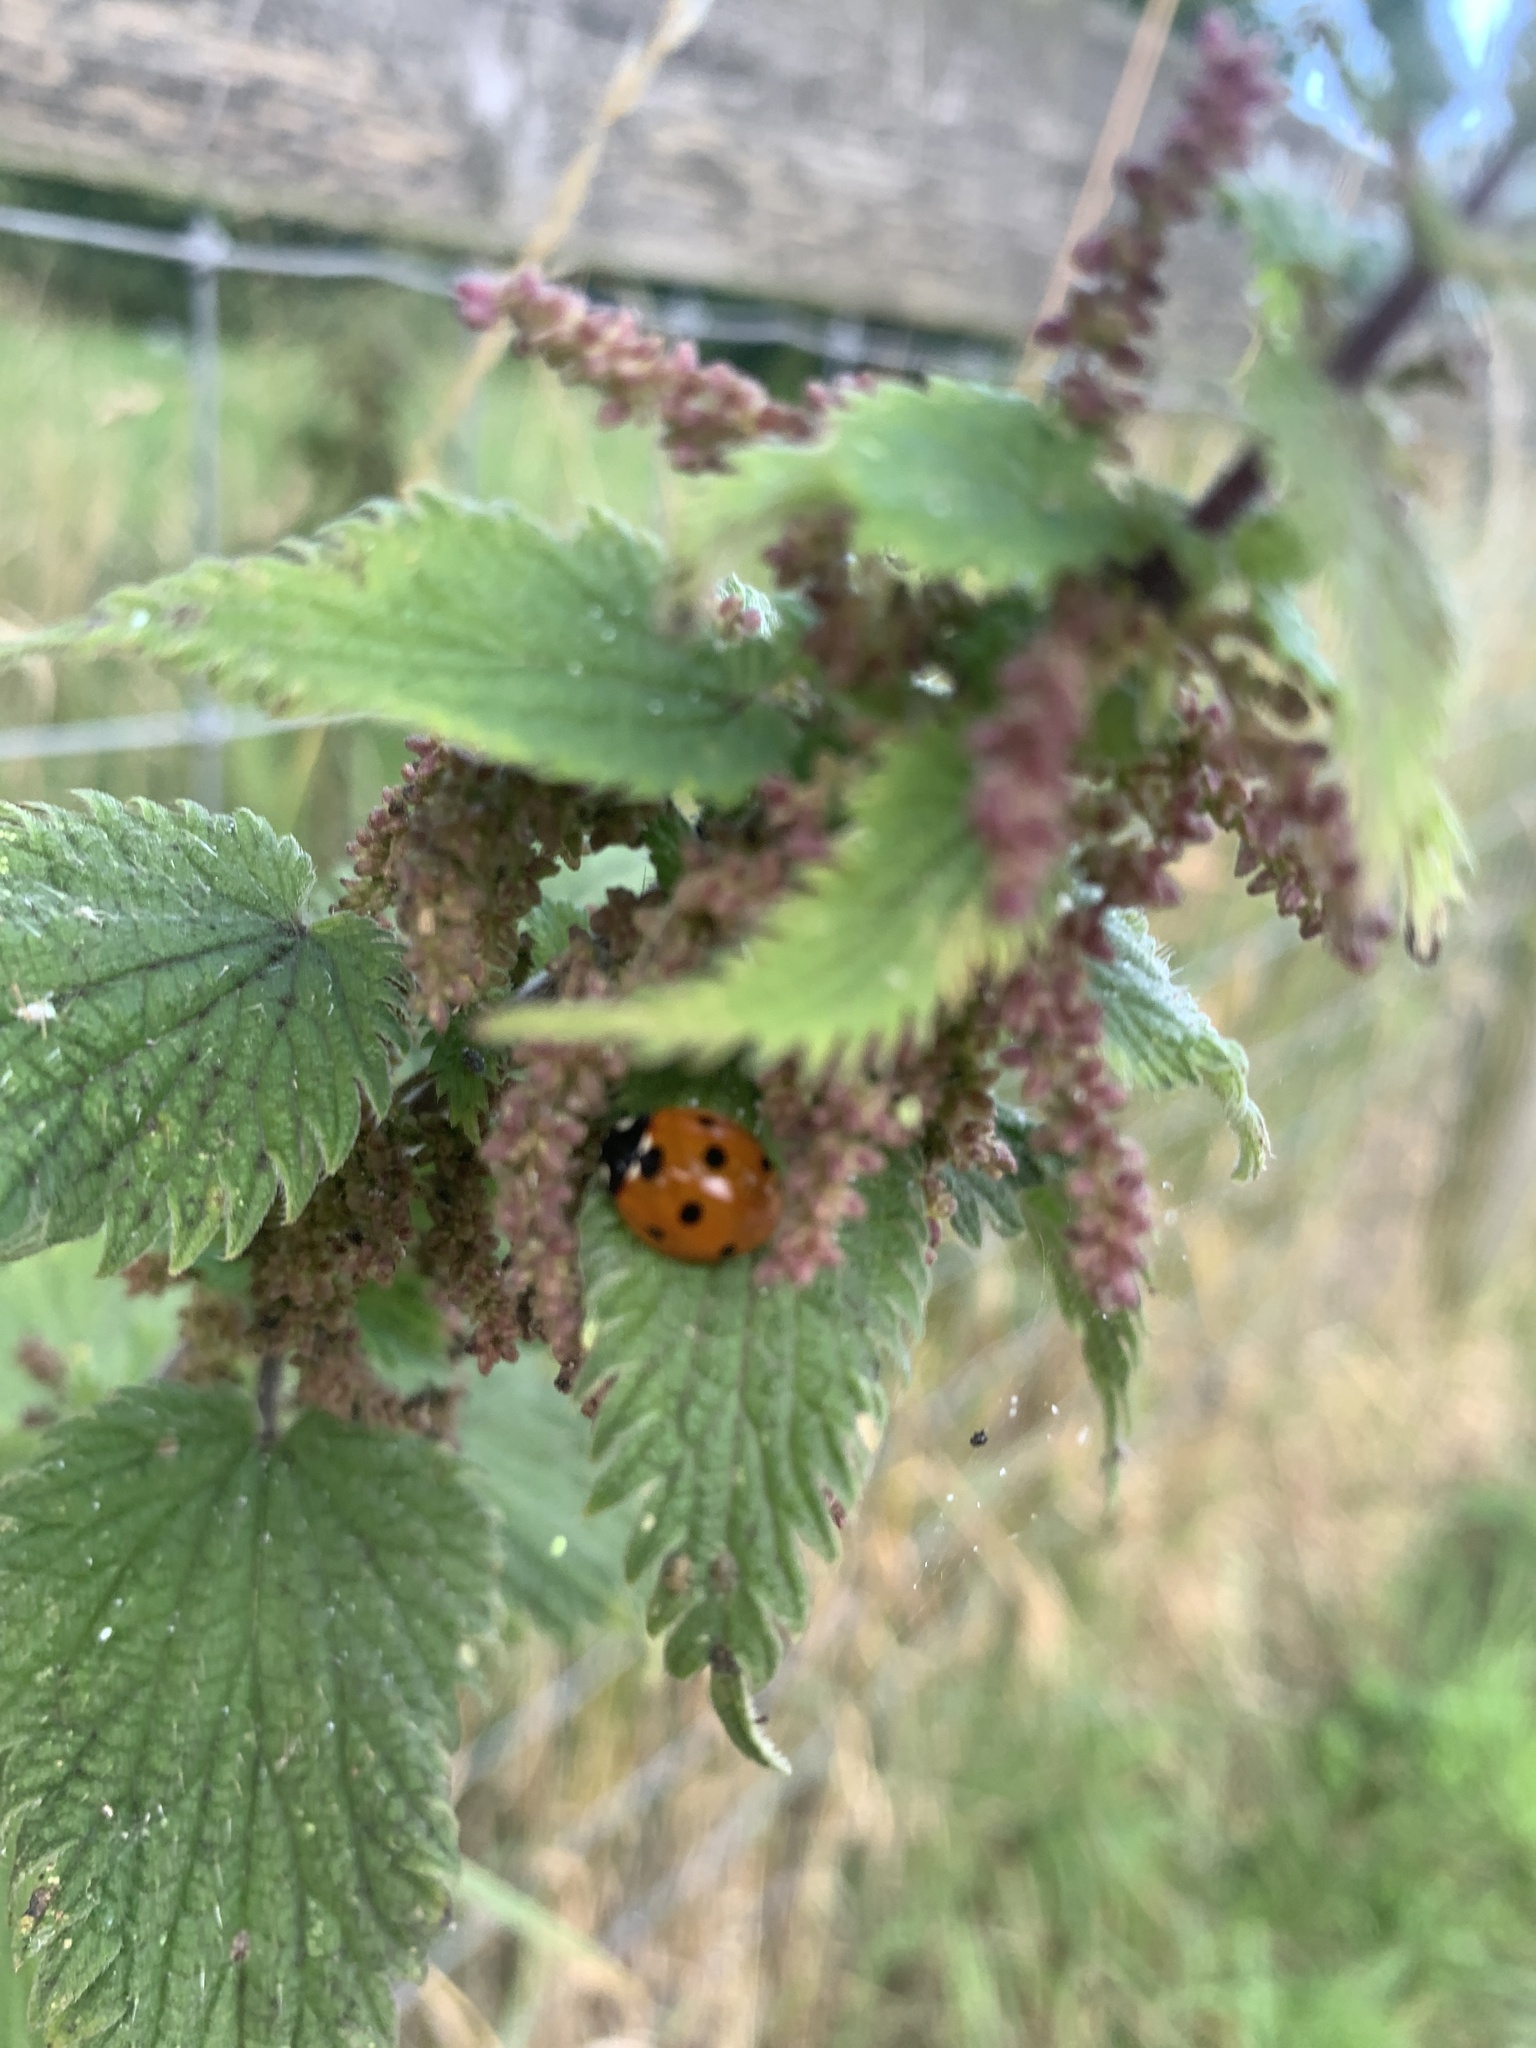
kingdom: Animalia
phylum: Arthropoda
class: Insecta
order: Coleoptera
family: Coccinellidae
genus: Coccinella
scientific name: Coccinella septempunctata
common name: Sevenspotted lady beetle
